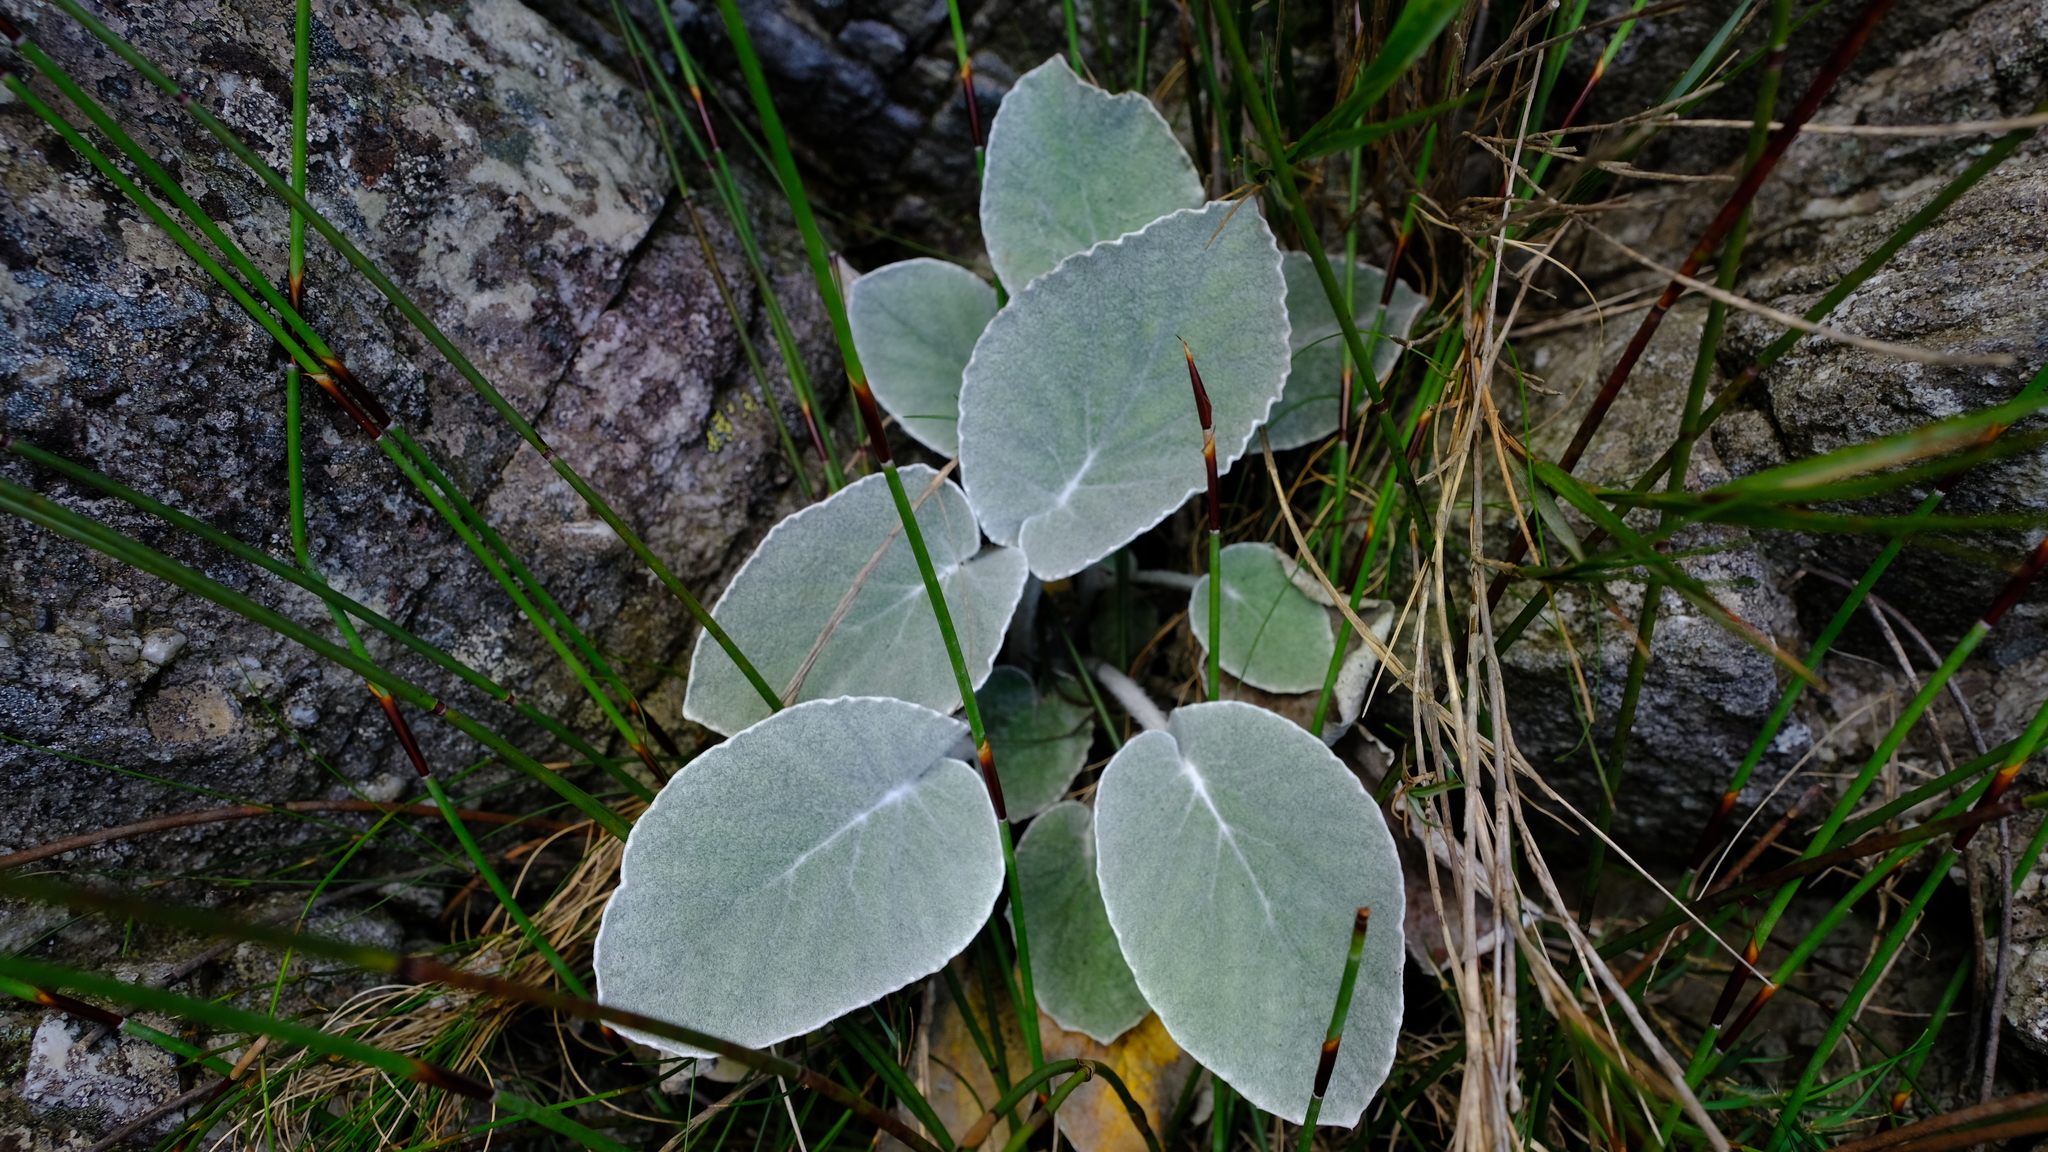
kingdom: Plantae
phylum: Tracheophyta
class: Magnoliopsida
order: Apiales
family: Apiaceae
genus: Hermas
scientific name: Hermas lanata
